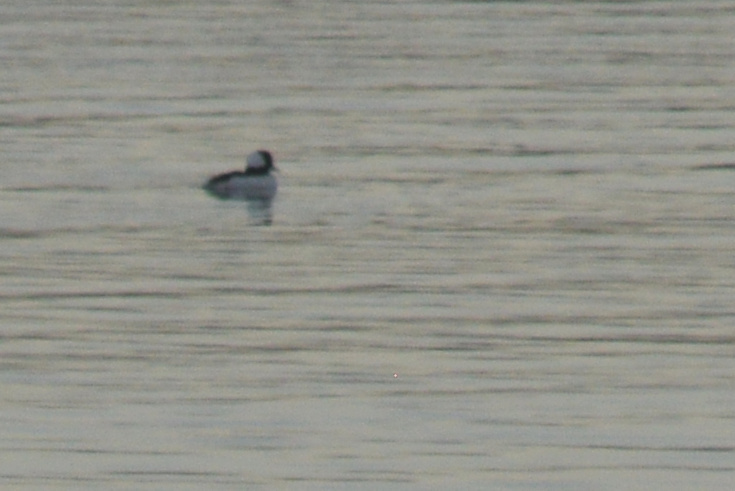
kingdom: Animalia
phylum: Chordata
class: Aves
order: Anseriformes
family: Anatidae
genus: Bucephala
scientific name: Bucephala albeola
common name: Bufflehead
